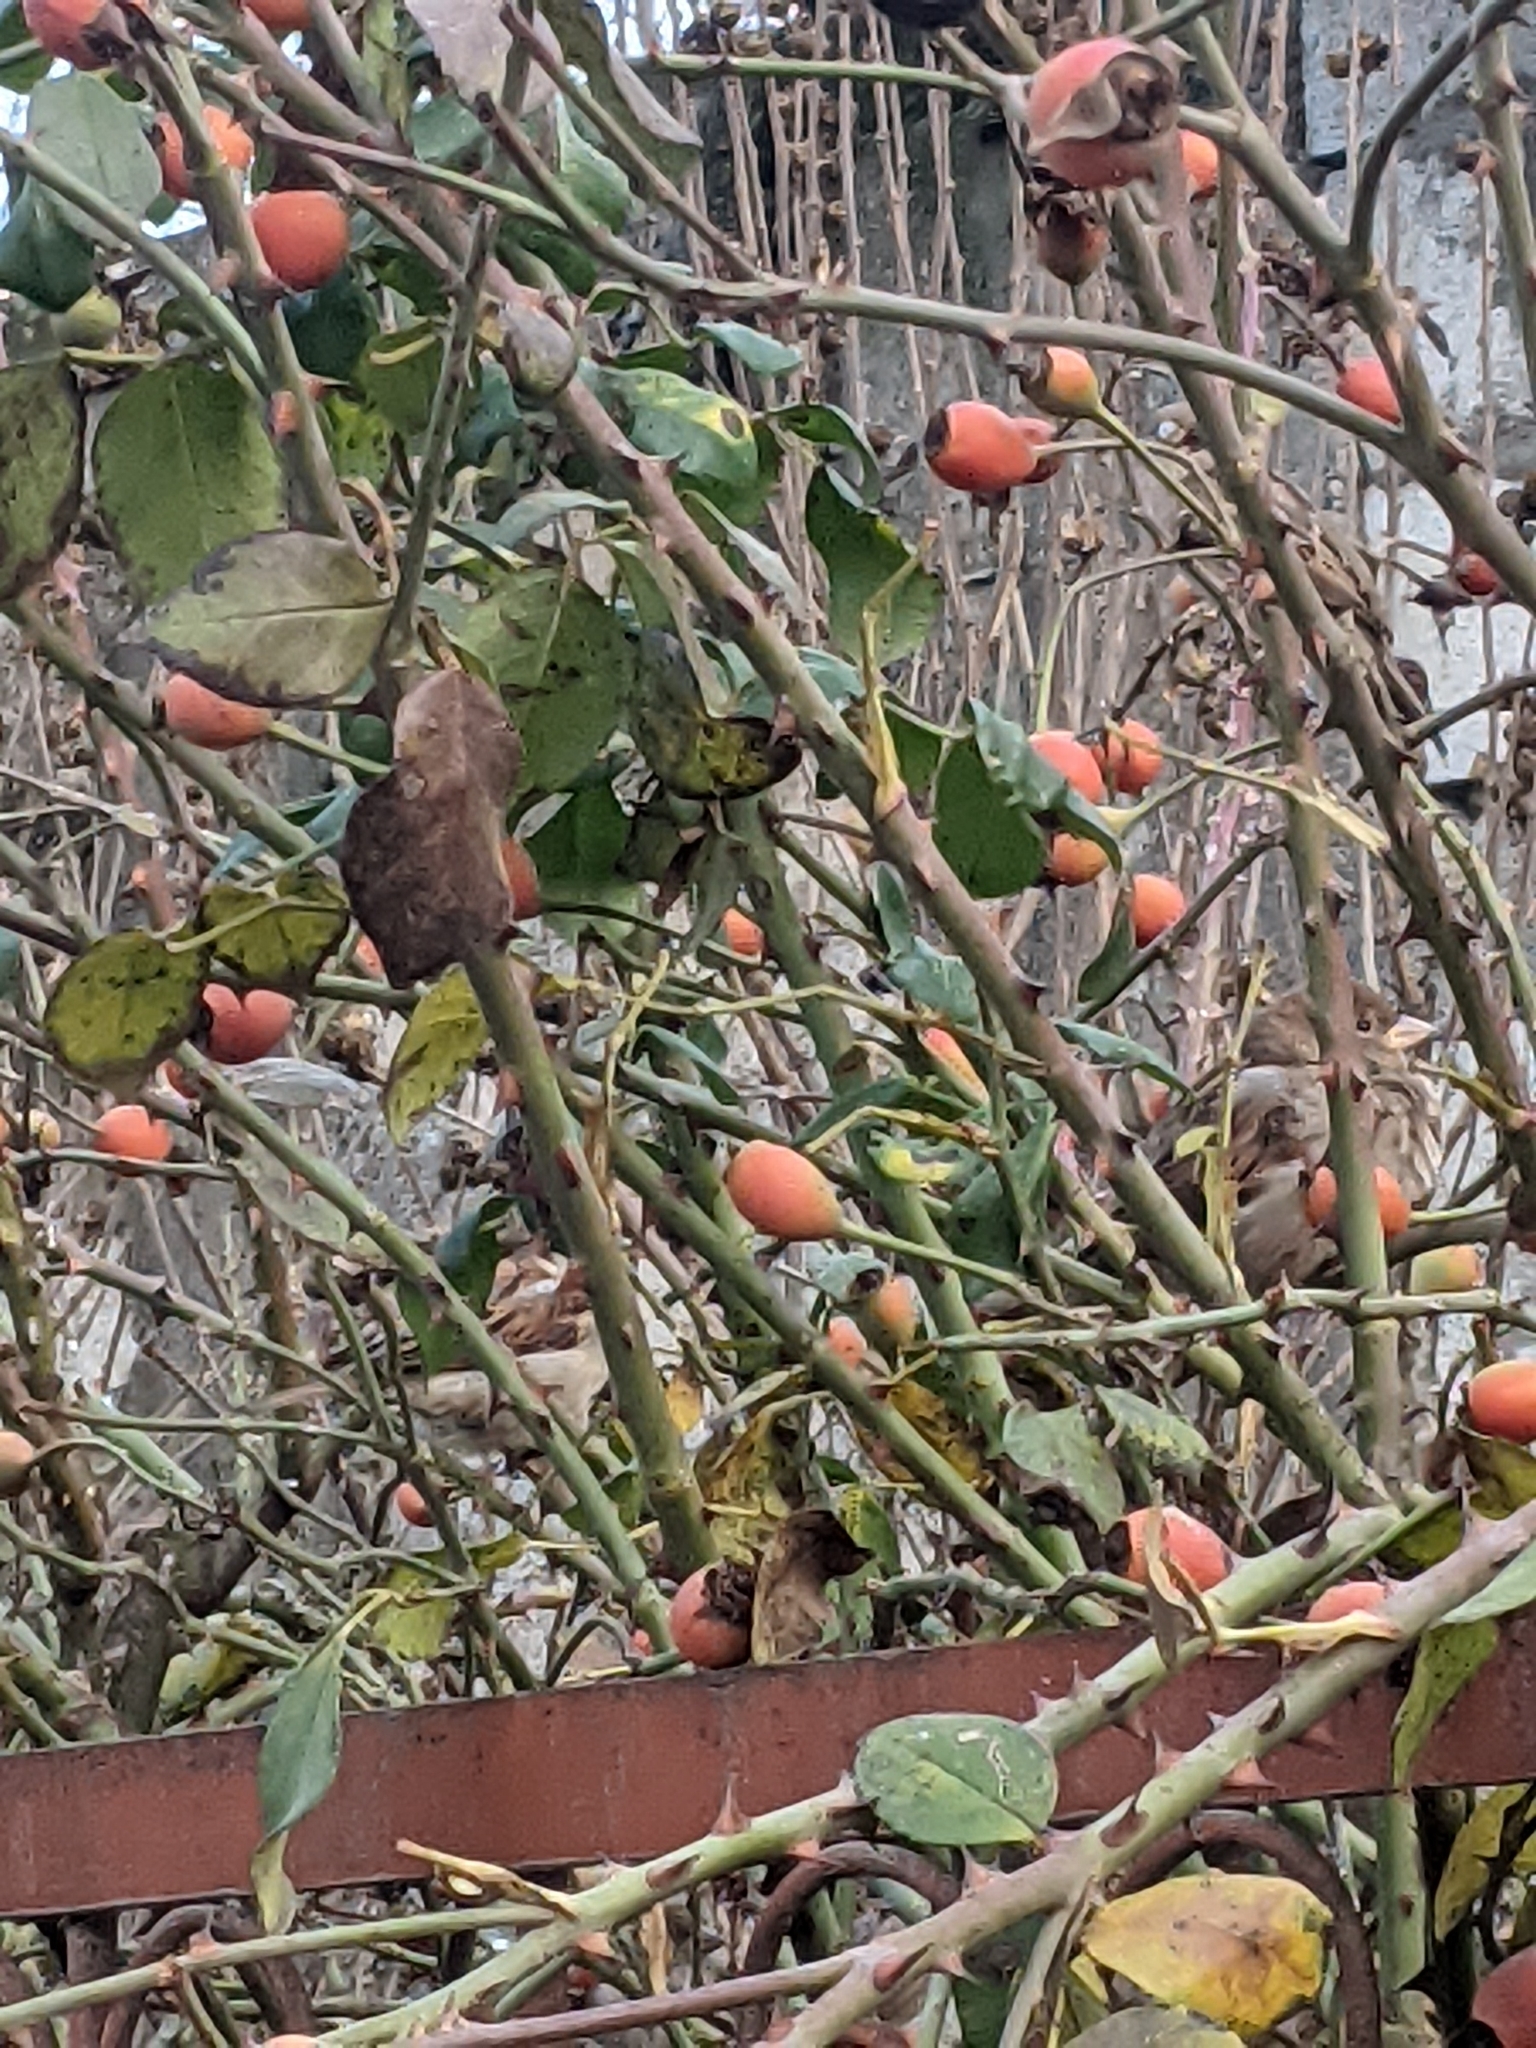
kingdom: Animalia
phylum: Chordata
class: Aves
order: Passeriformes
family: Passeridae
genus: Passer
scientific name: Passer domesticus
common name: House sparrow
